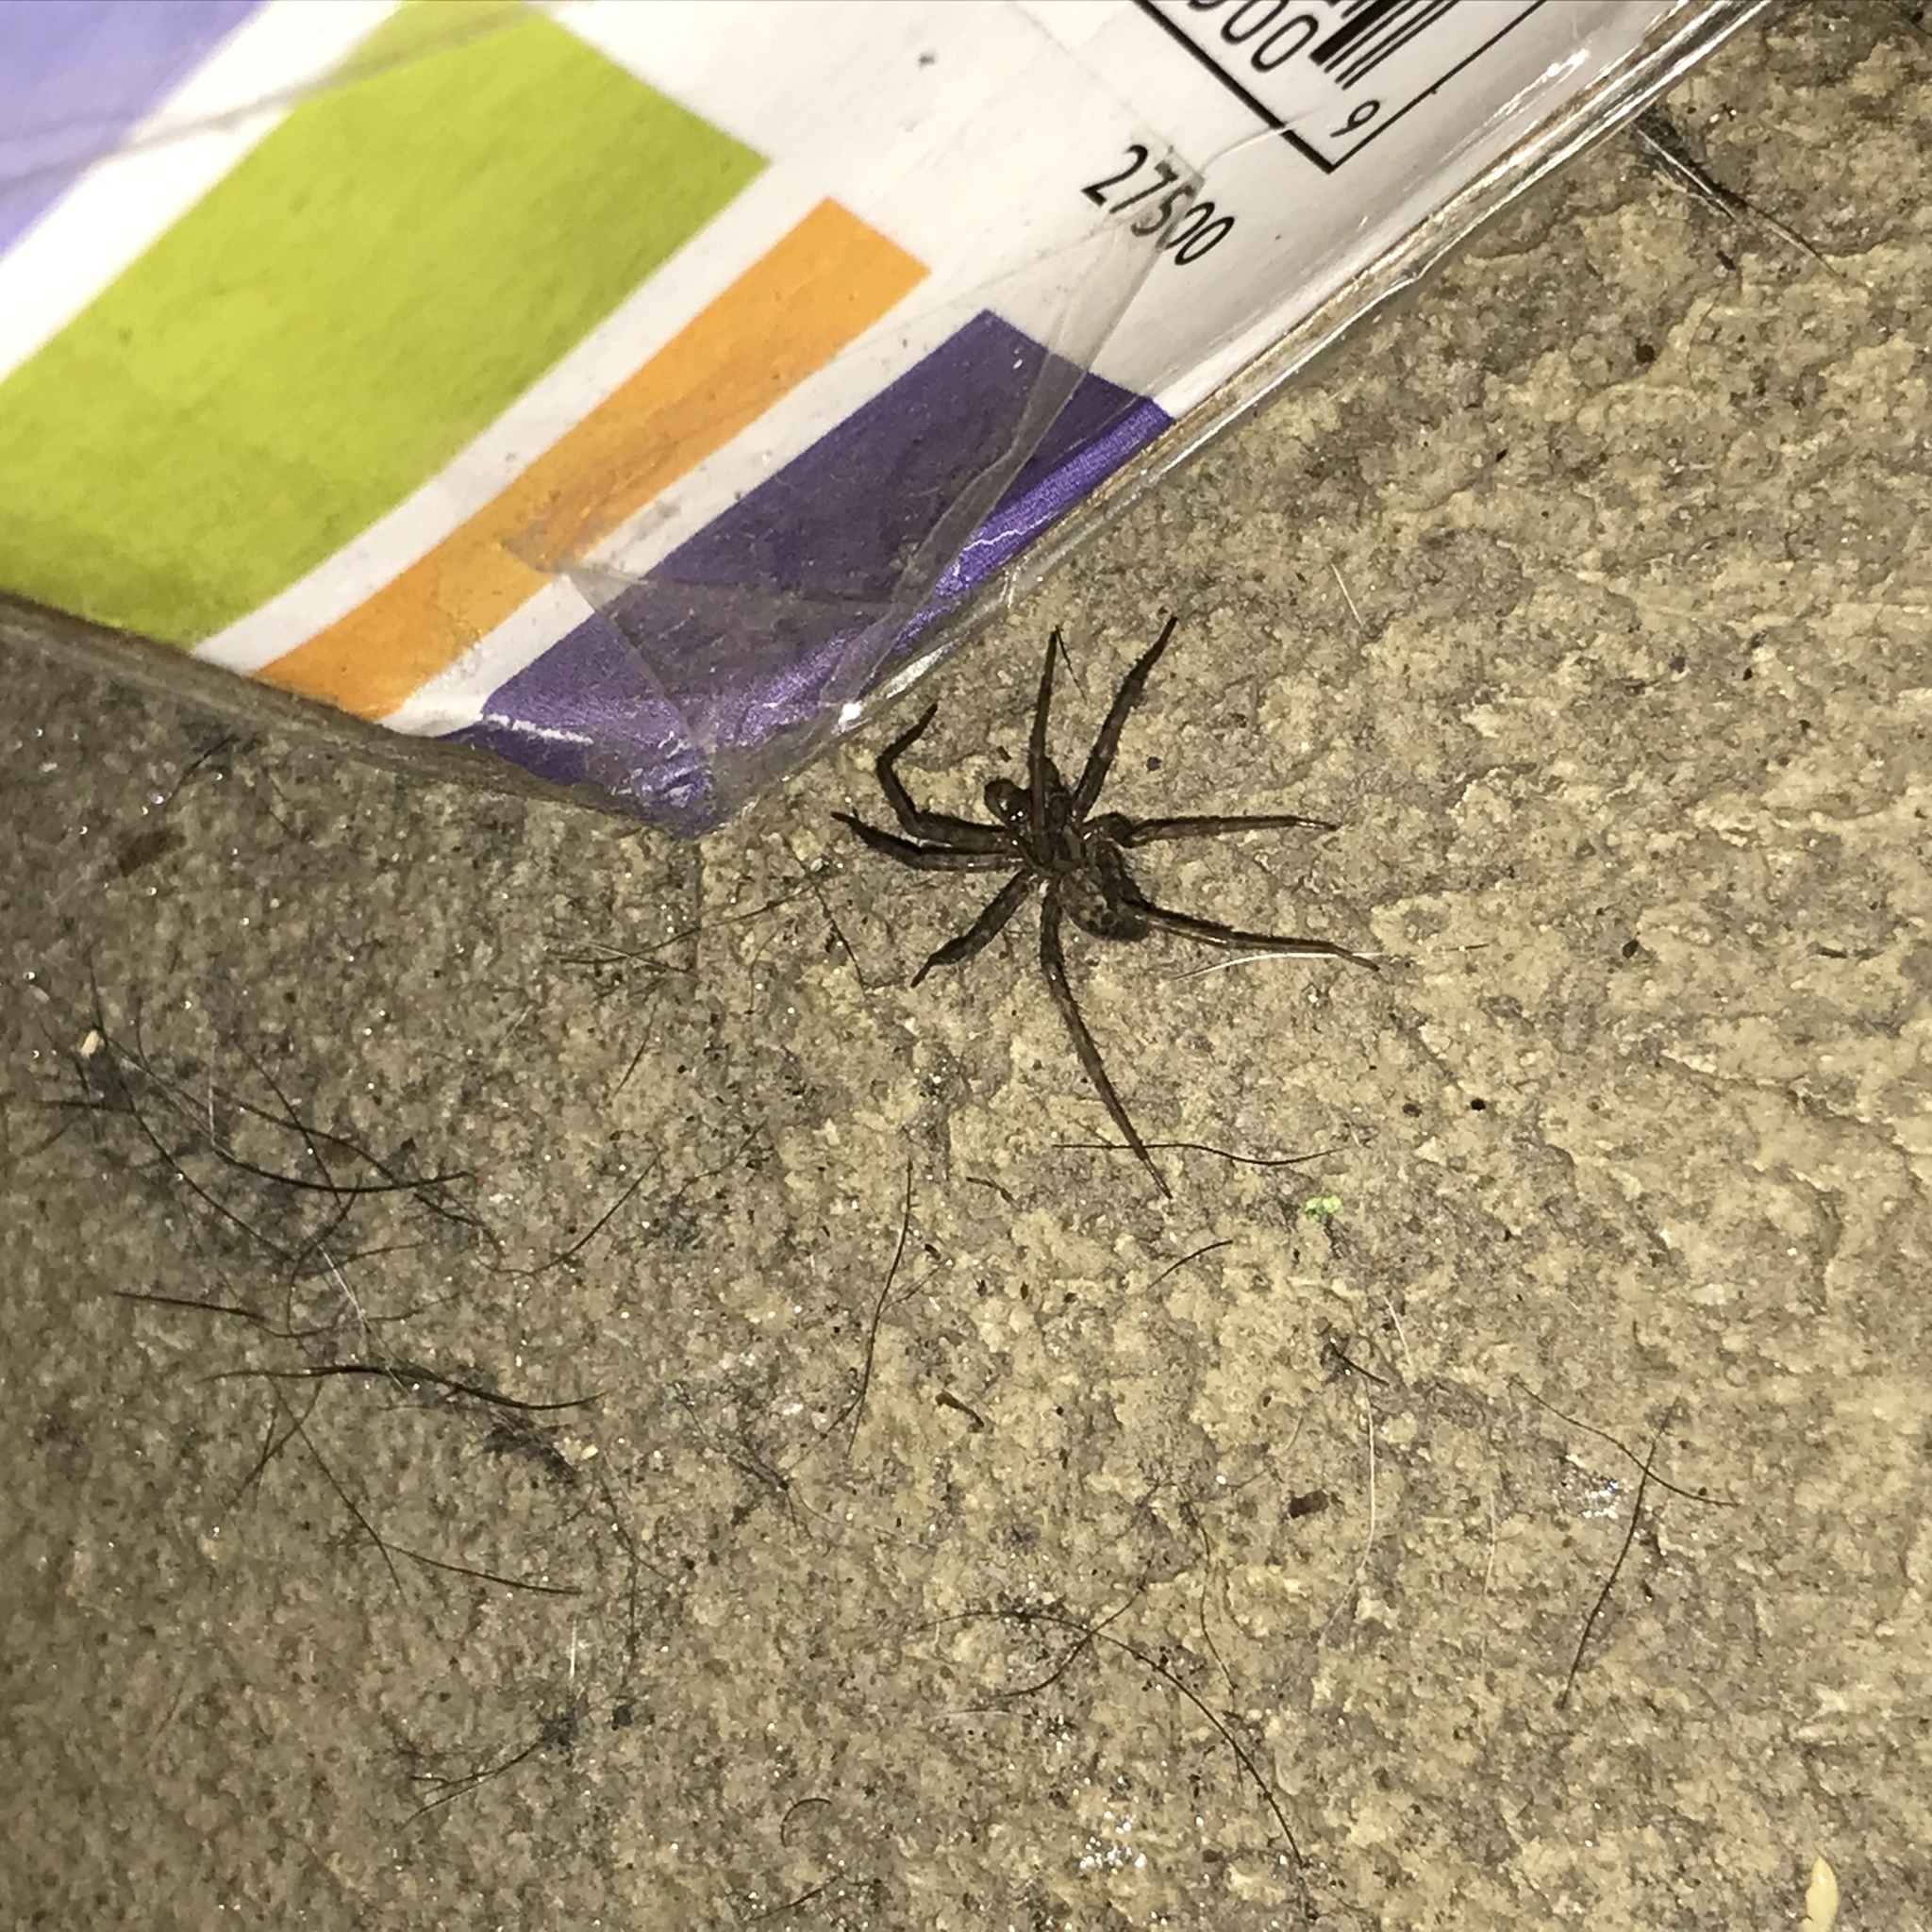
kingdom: Animalia
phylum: Arthropoda
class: Arachnida
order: Araneae
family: Agelenidae
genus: Tegenaria
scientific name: Tegenaria domestica
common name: Barn funnel weaver
